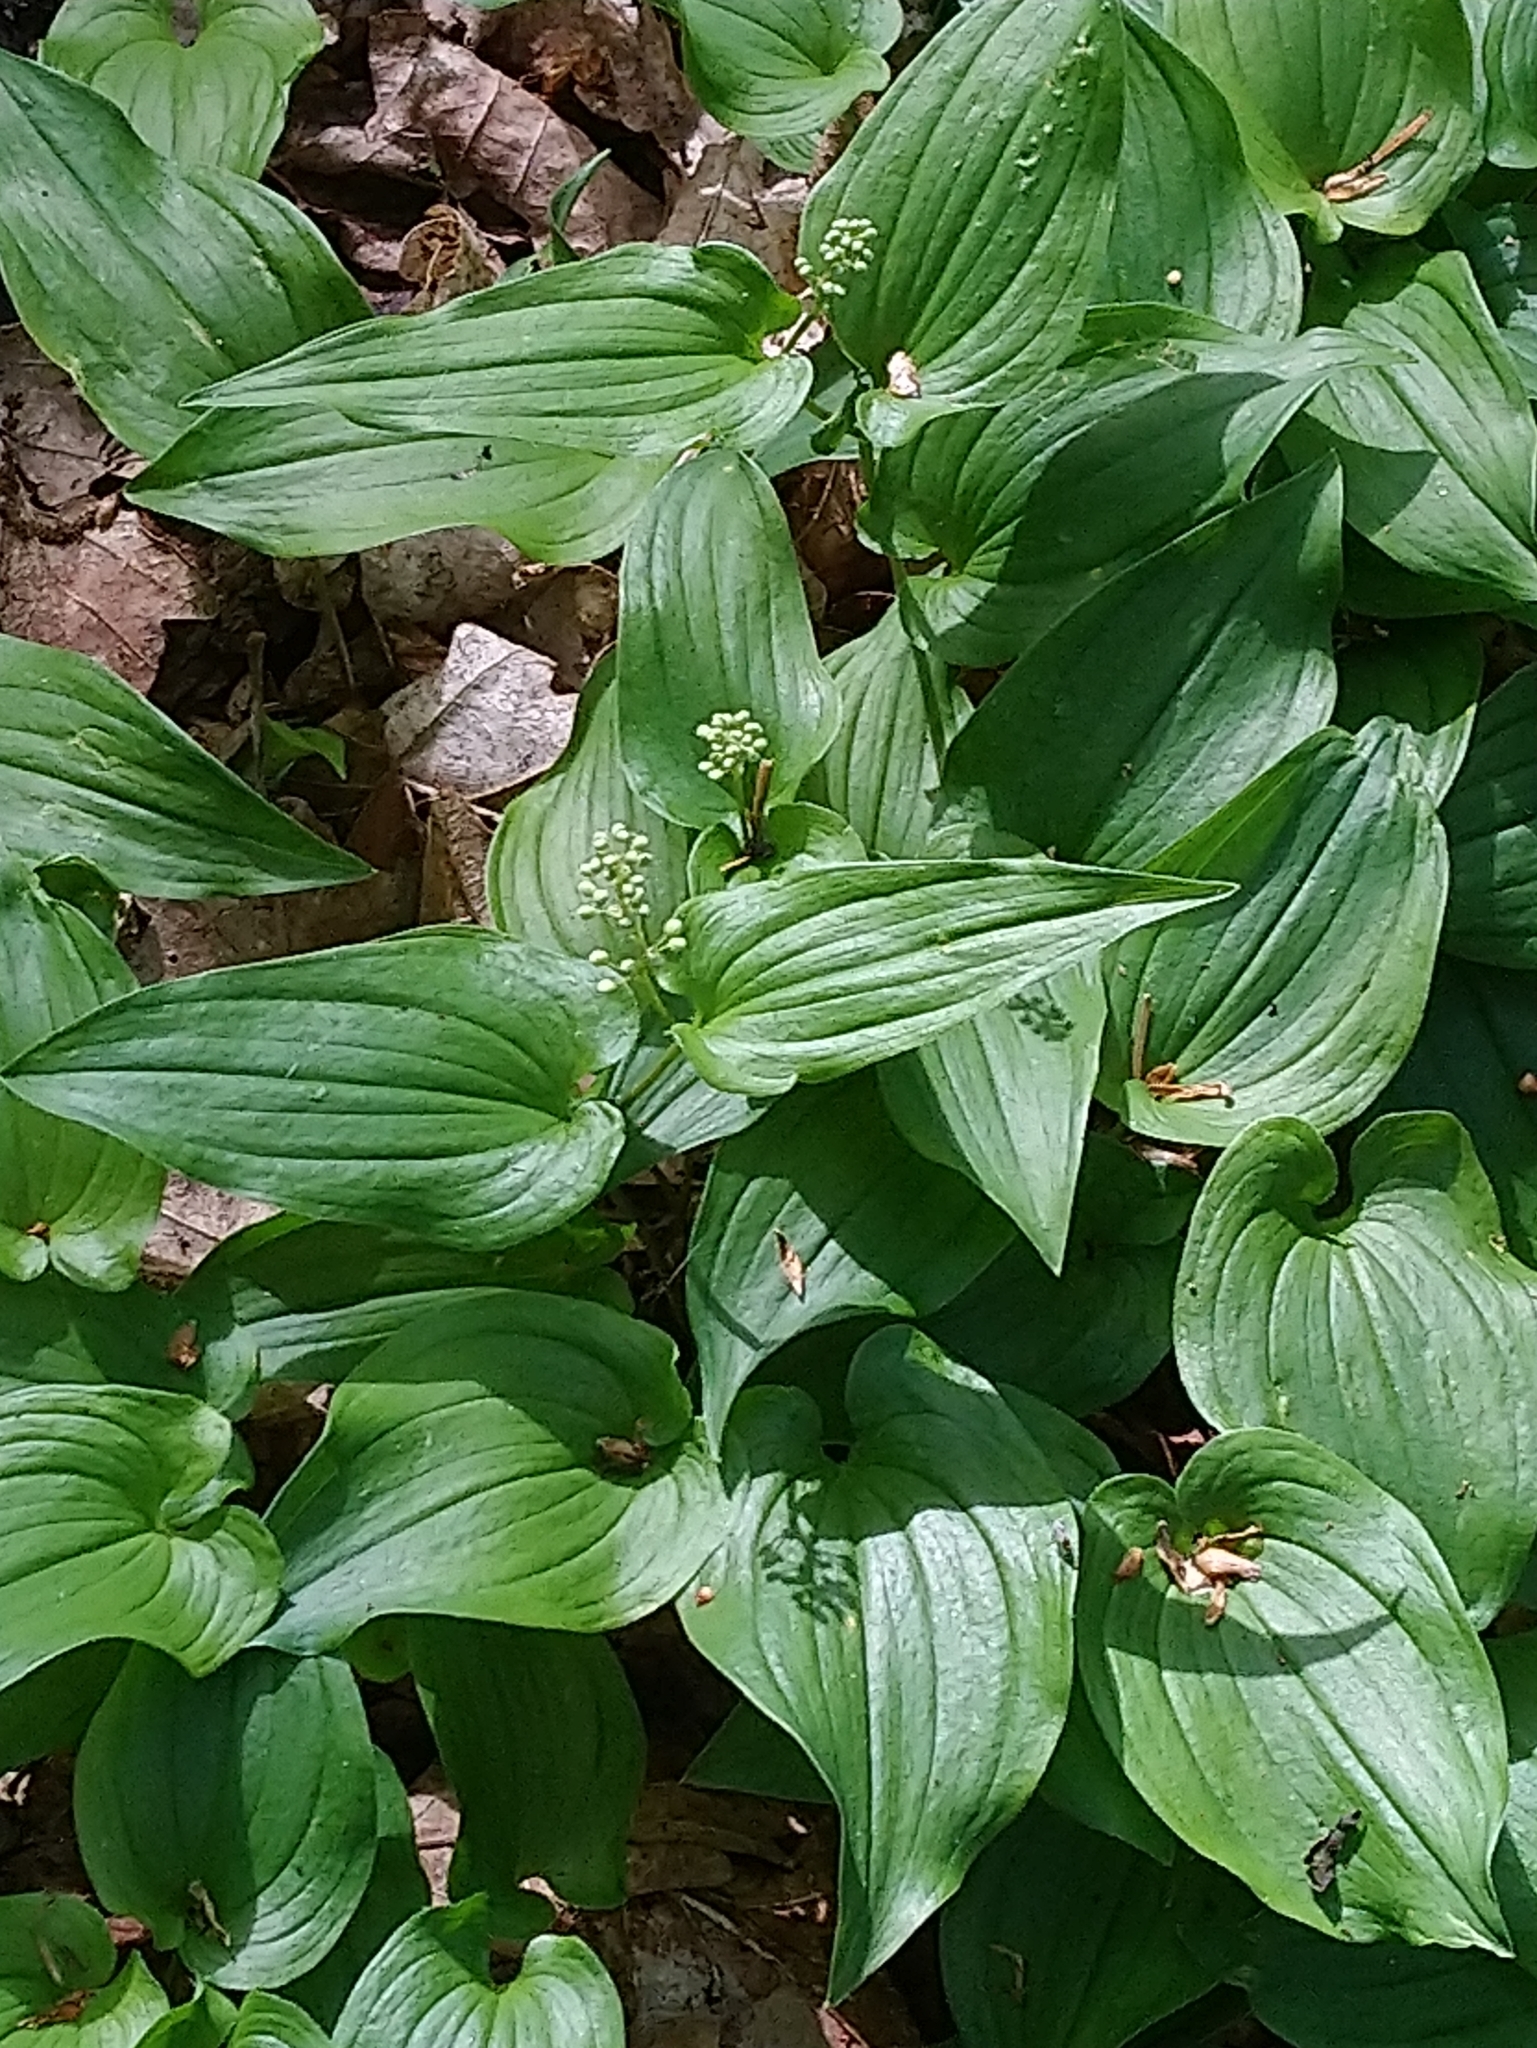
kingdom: Plantae
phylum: Tracheophyta
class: Liliopsida
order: Asparagales
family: Asparagaceae
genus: Maianthemum
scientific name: Maianthemum bifolium
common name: May lily
